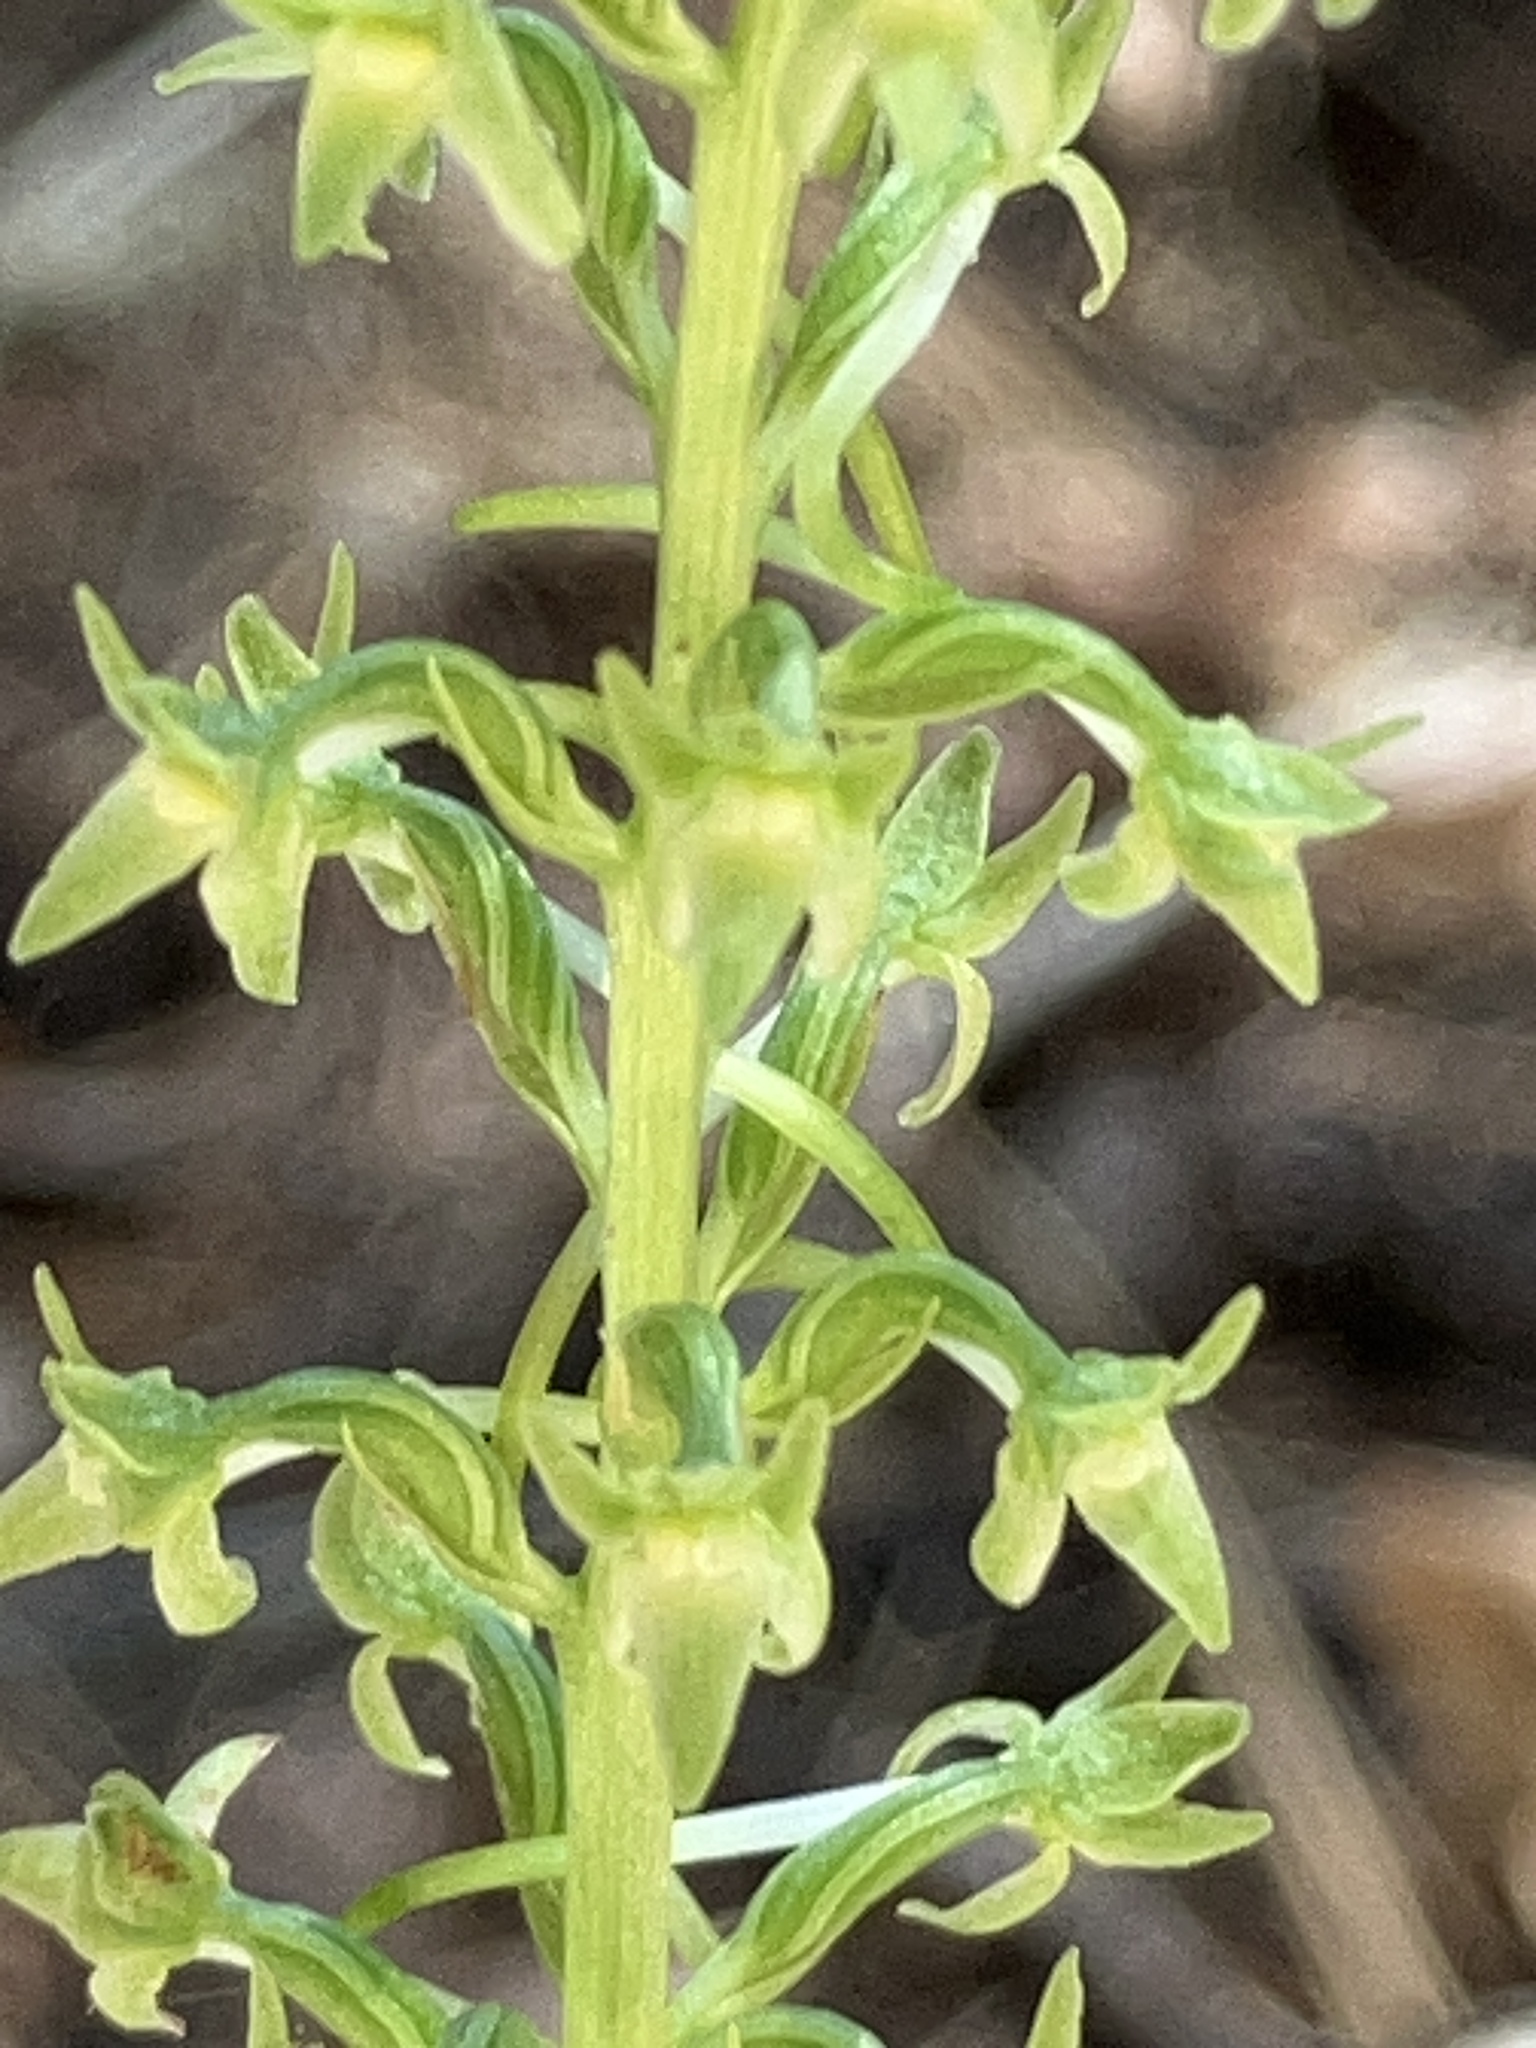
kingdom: Plantae
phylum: Tracheophyta
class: Liliopsida
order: Asparagales
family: Orchidaceae
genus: Platanthera
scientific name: Platanthera elongata
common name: Dense-flowered rein orchid
